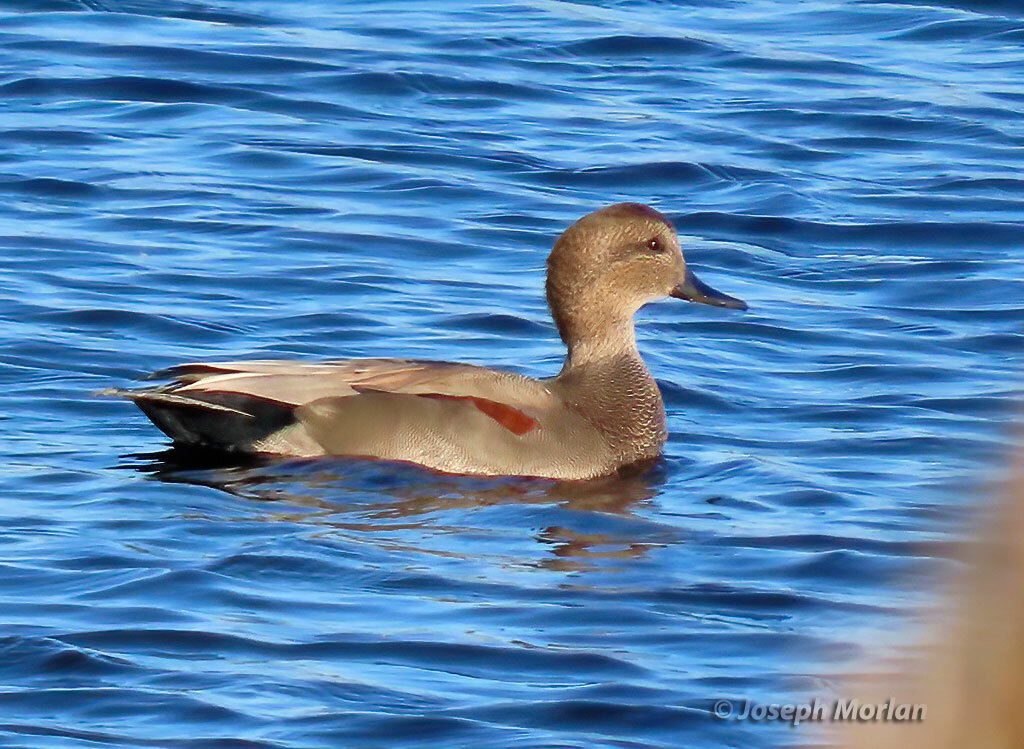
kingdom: Animalia
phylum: Chordata
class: Aves
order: Anseriformes
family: Anatidae
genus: Mareca
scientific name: Mareca strepera
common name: Gadwall
